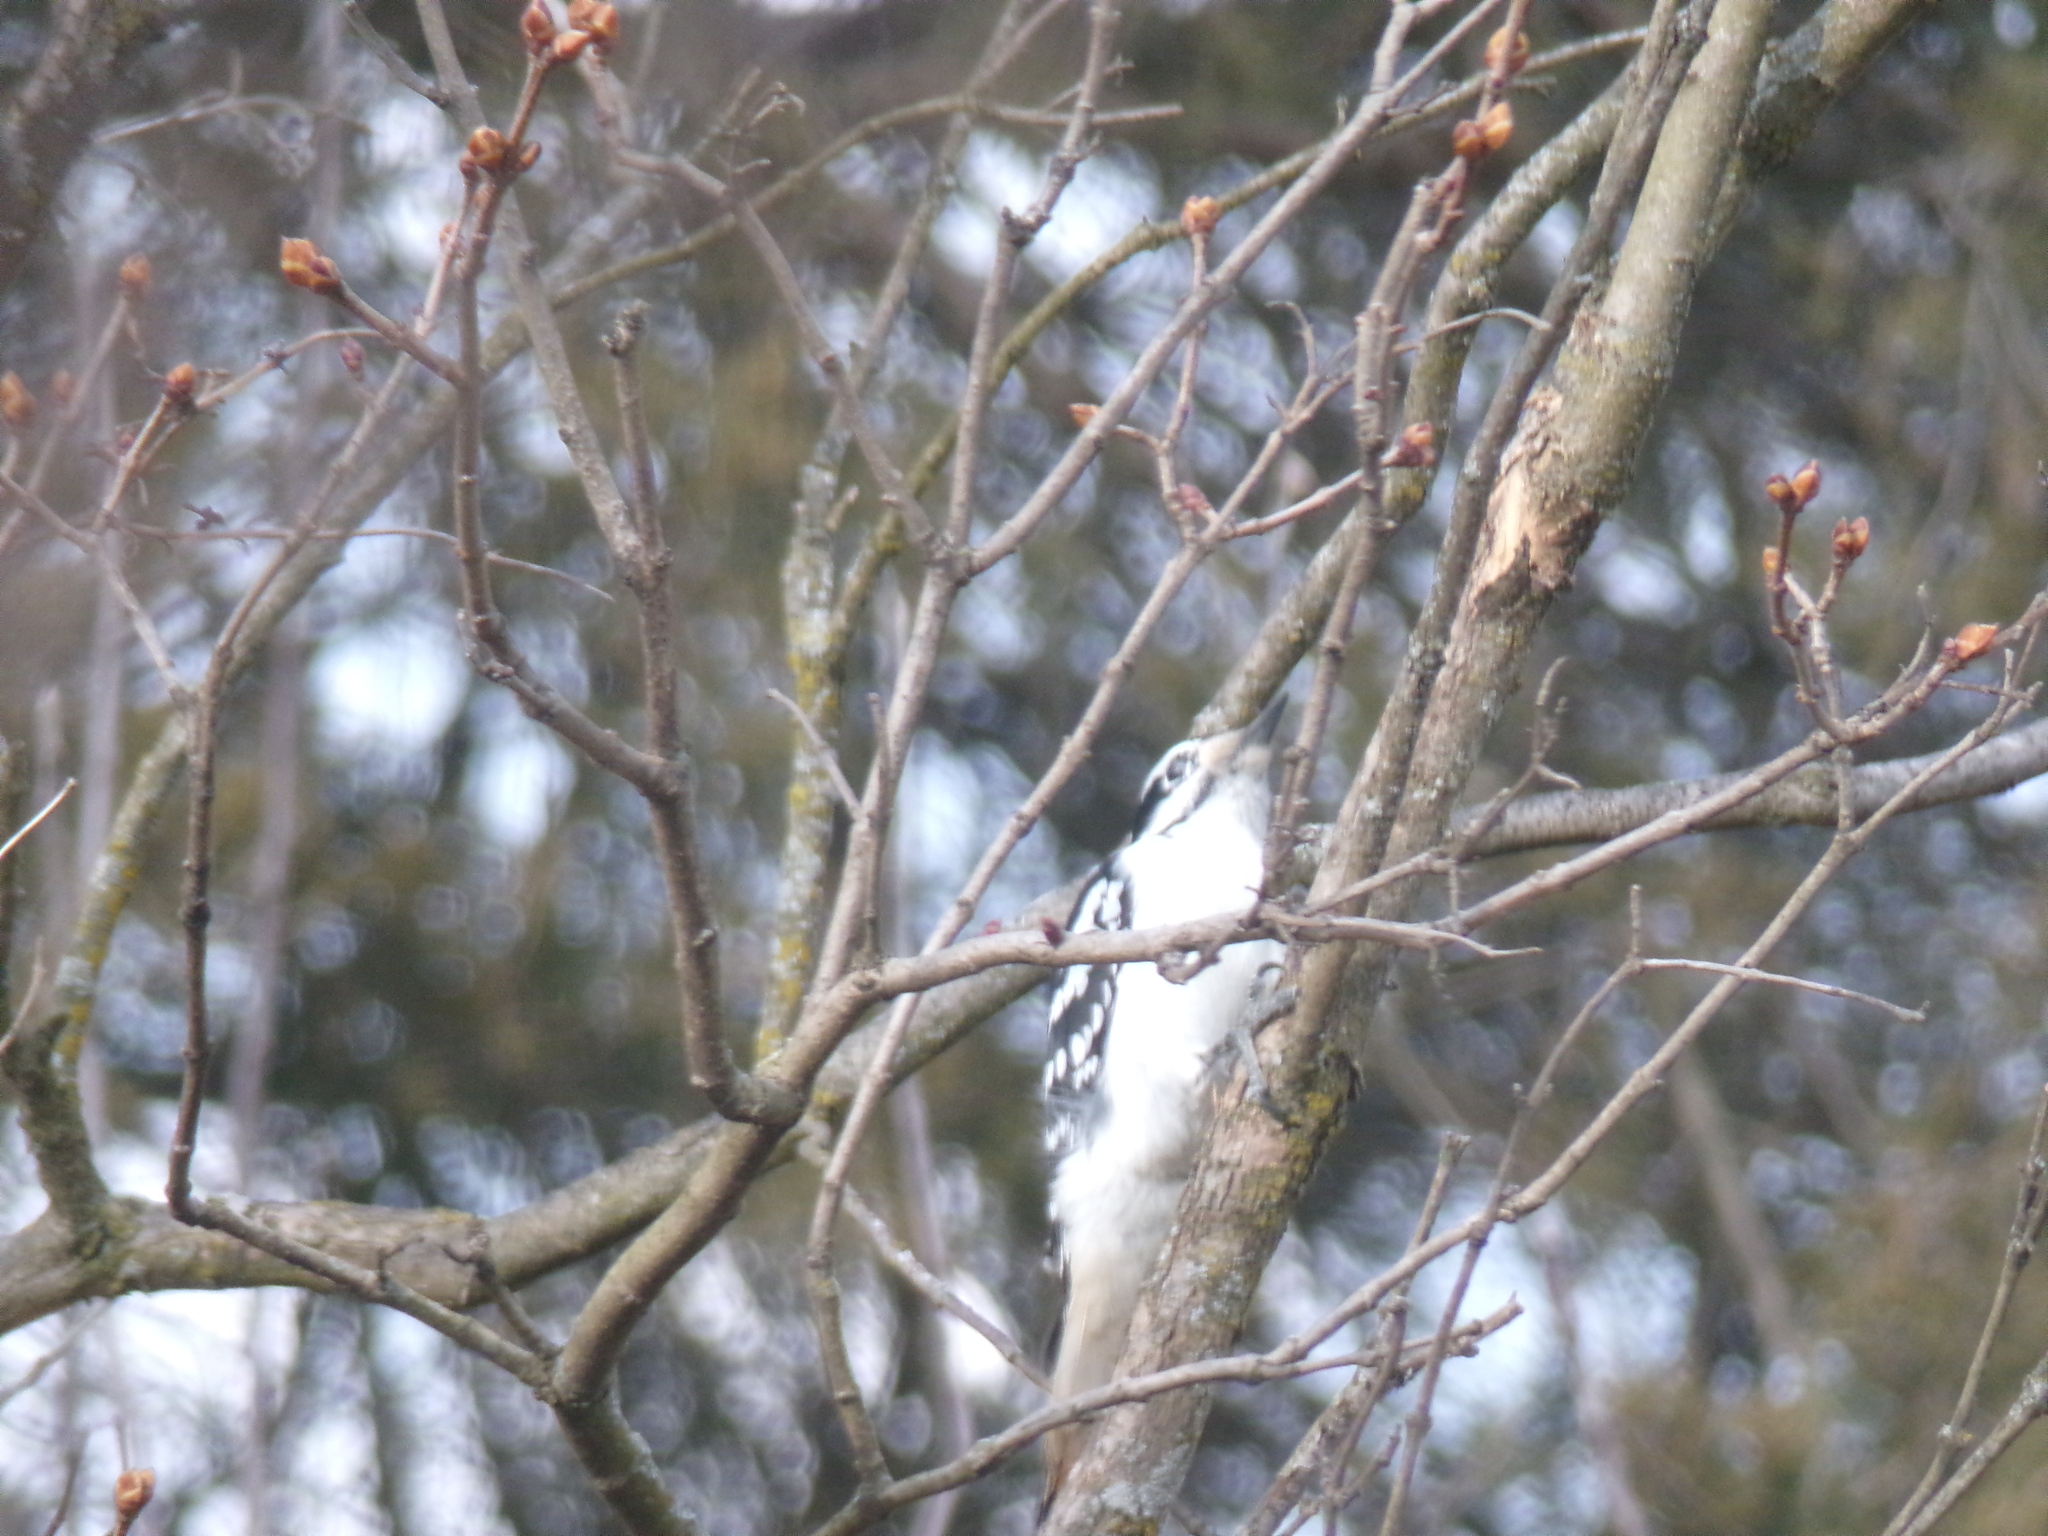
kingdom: Animalia
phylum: Chordata
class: Aves
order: Piciformes
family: Picidae
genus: Leuconotopicus
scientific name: Leuconotopicus villosus
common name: Hairy woodpecker
